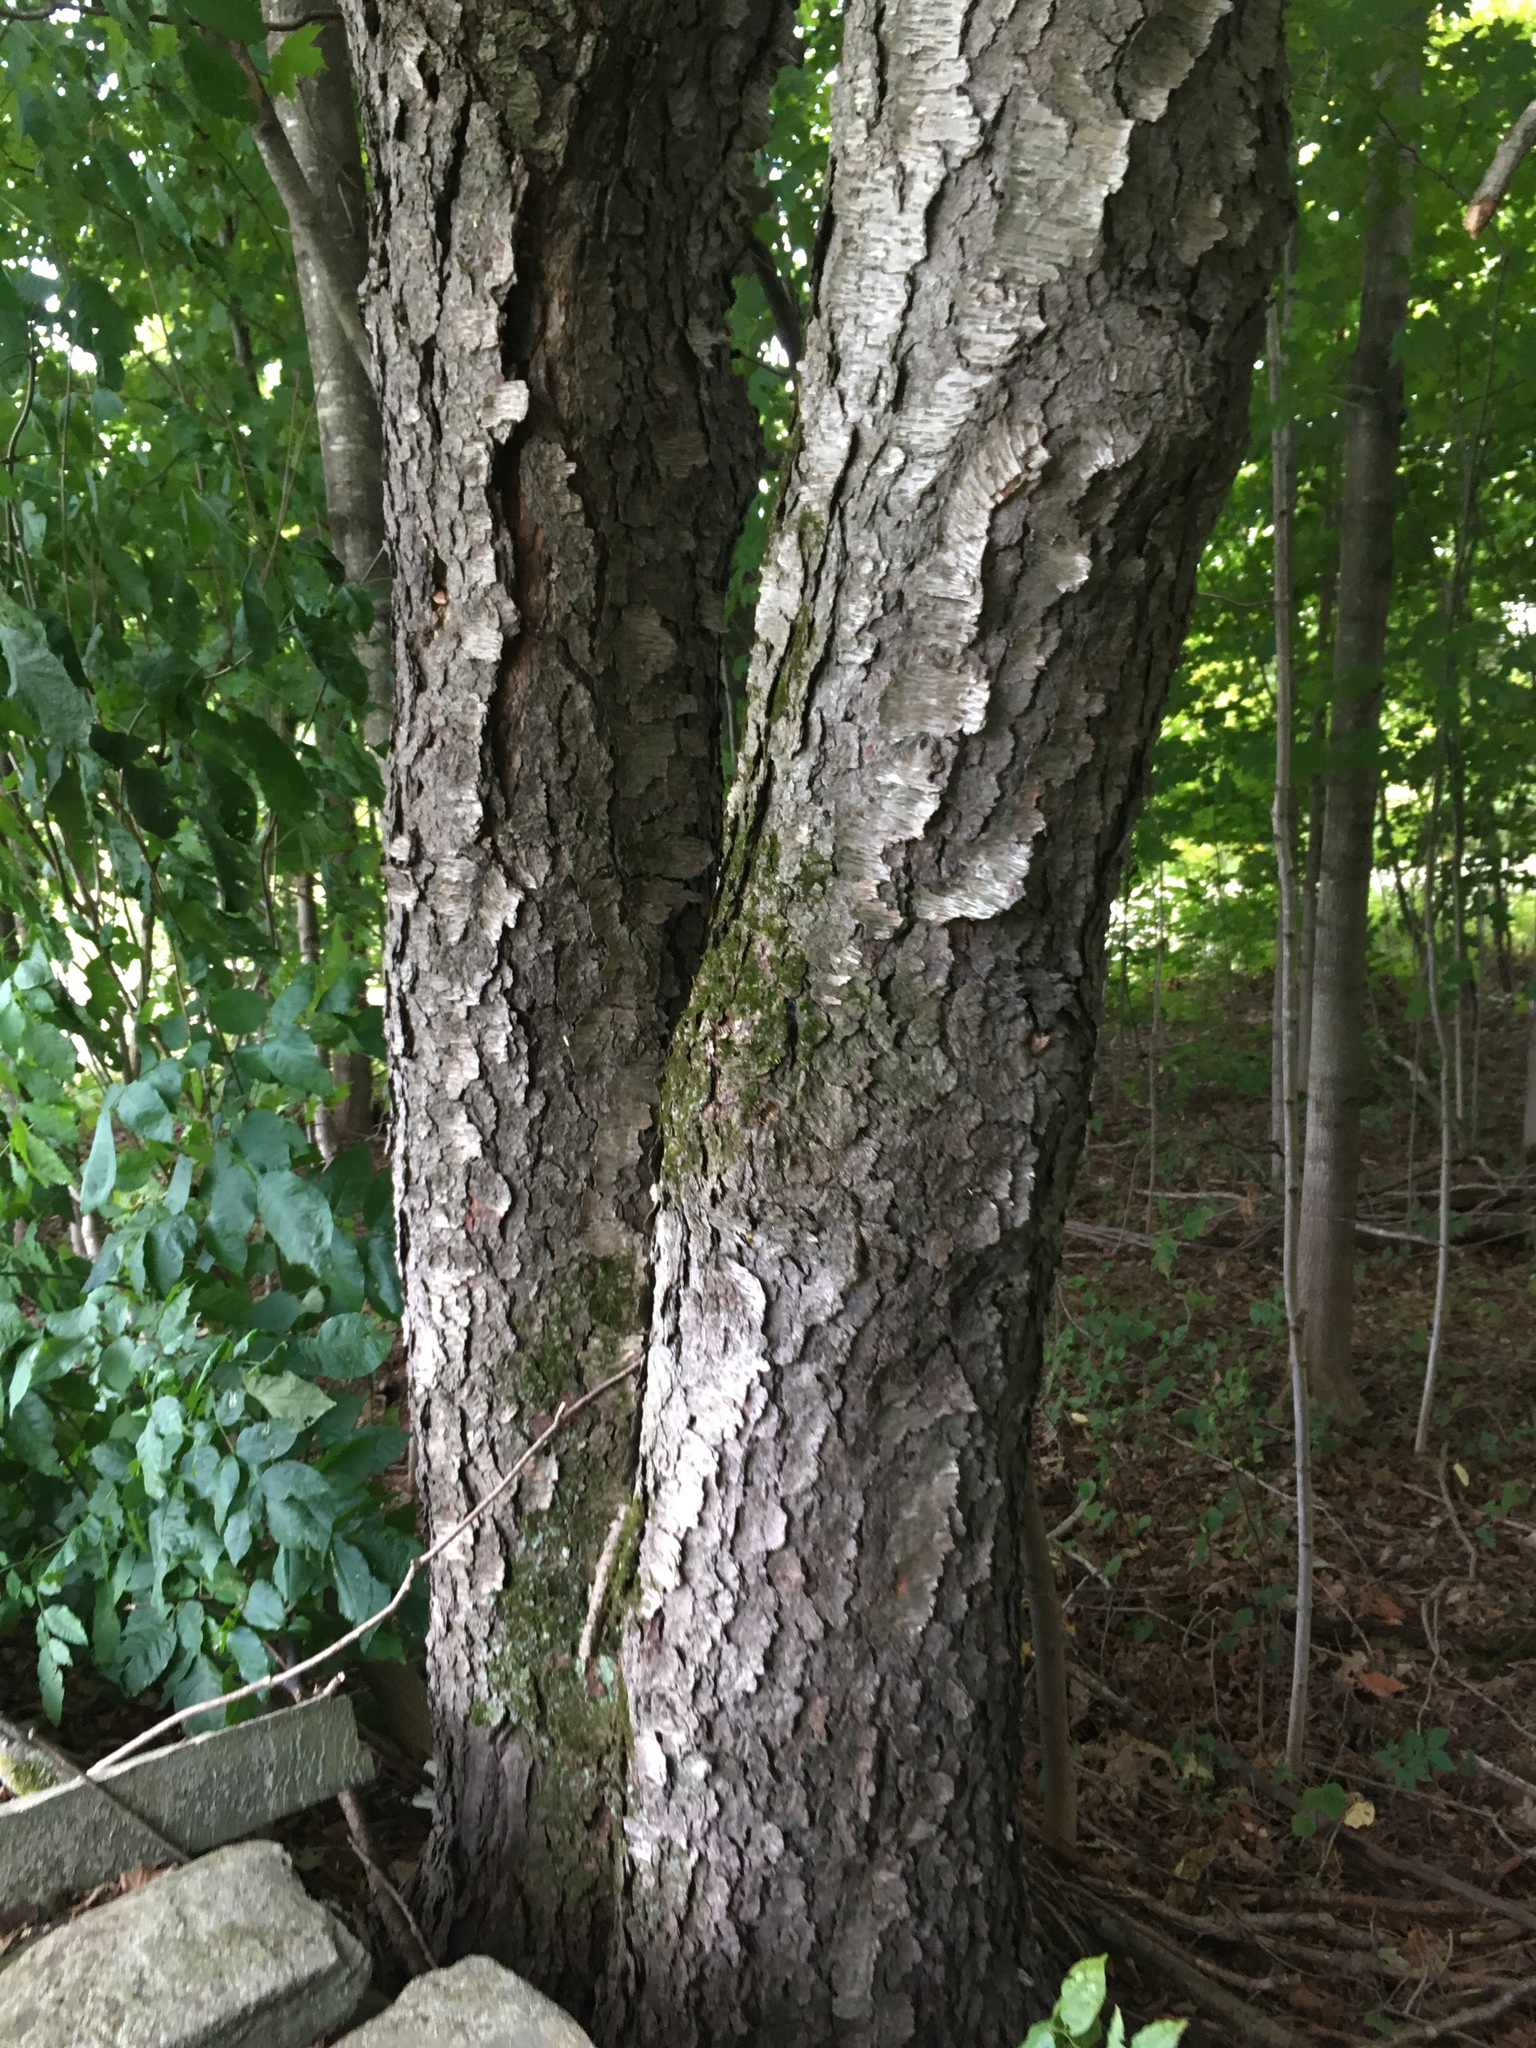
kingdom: Plantae
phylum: Tracheophyta
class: Magnoliopsida
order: Rosales
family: Rosaceae
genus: Prunus
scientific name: Prunus serotina
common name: Black cherry
